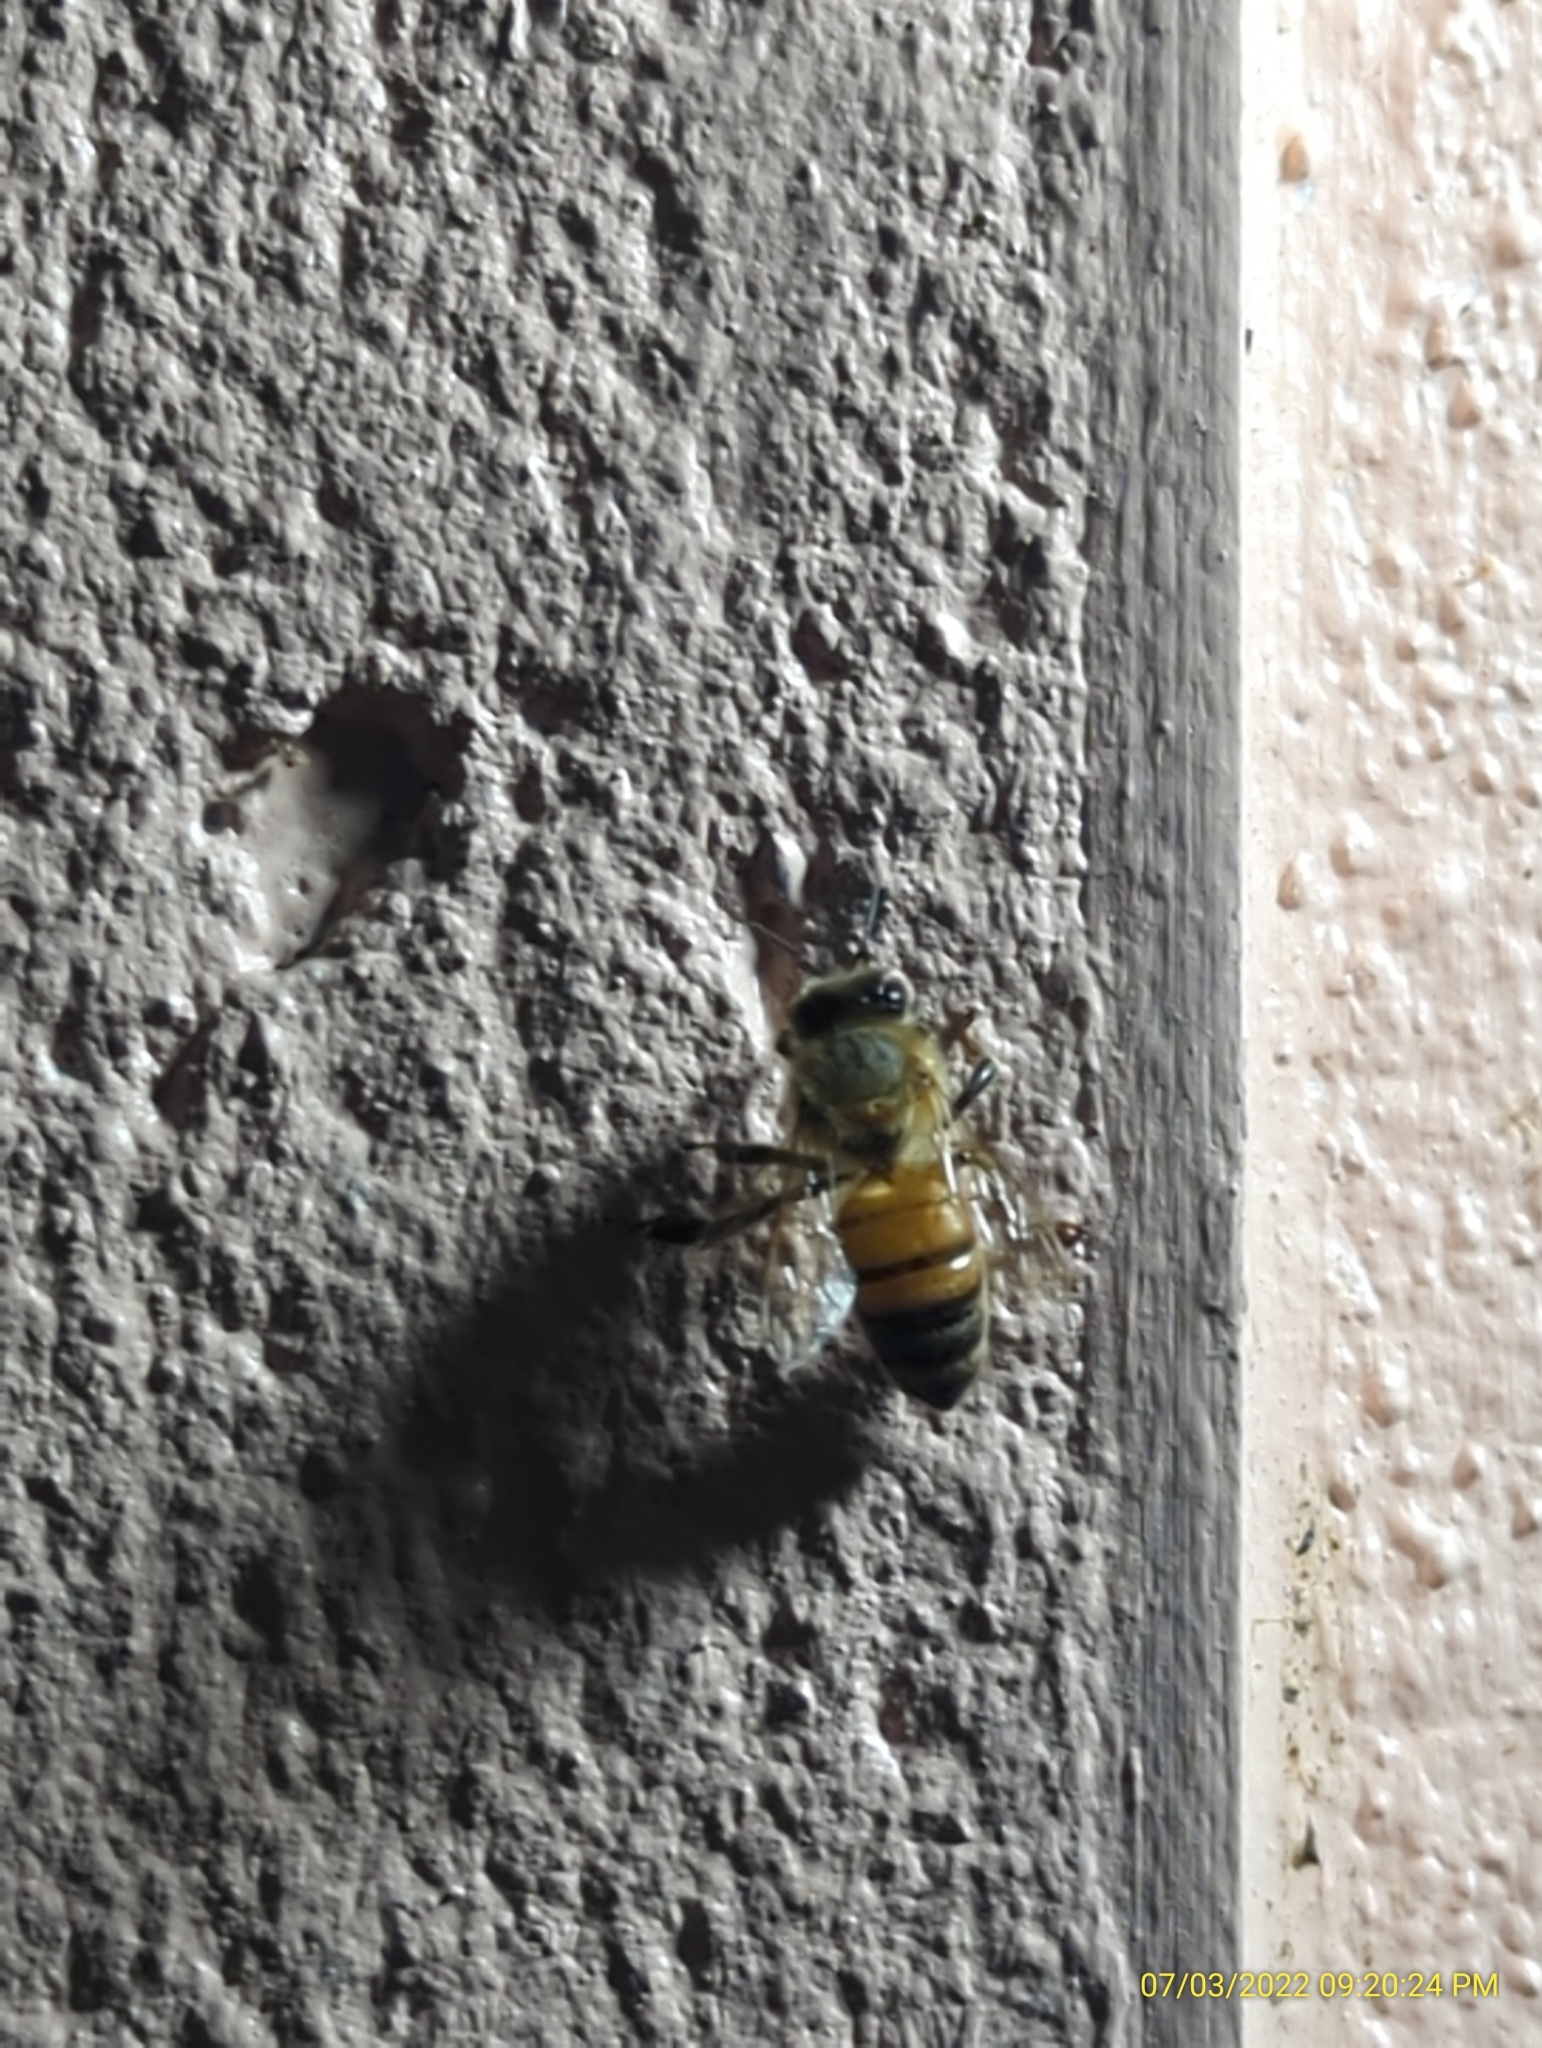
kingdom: Animalia
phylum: Arthropoda
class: Insecta
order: Hymenoptera
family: Apidae
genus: Apis
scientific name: Apis mellifera
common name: Honey bee
